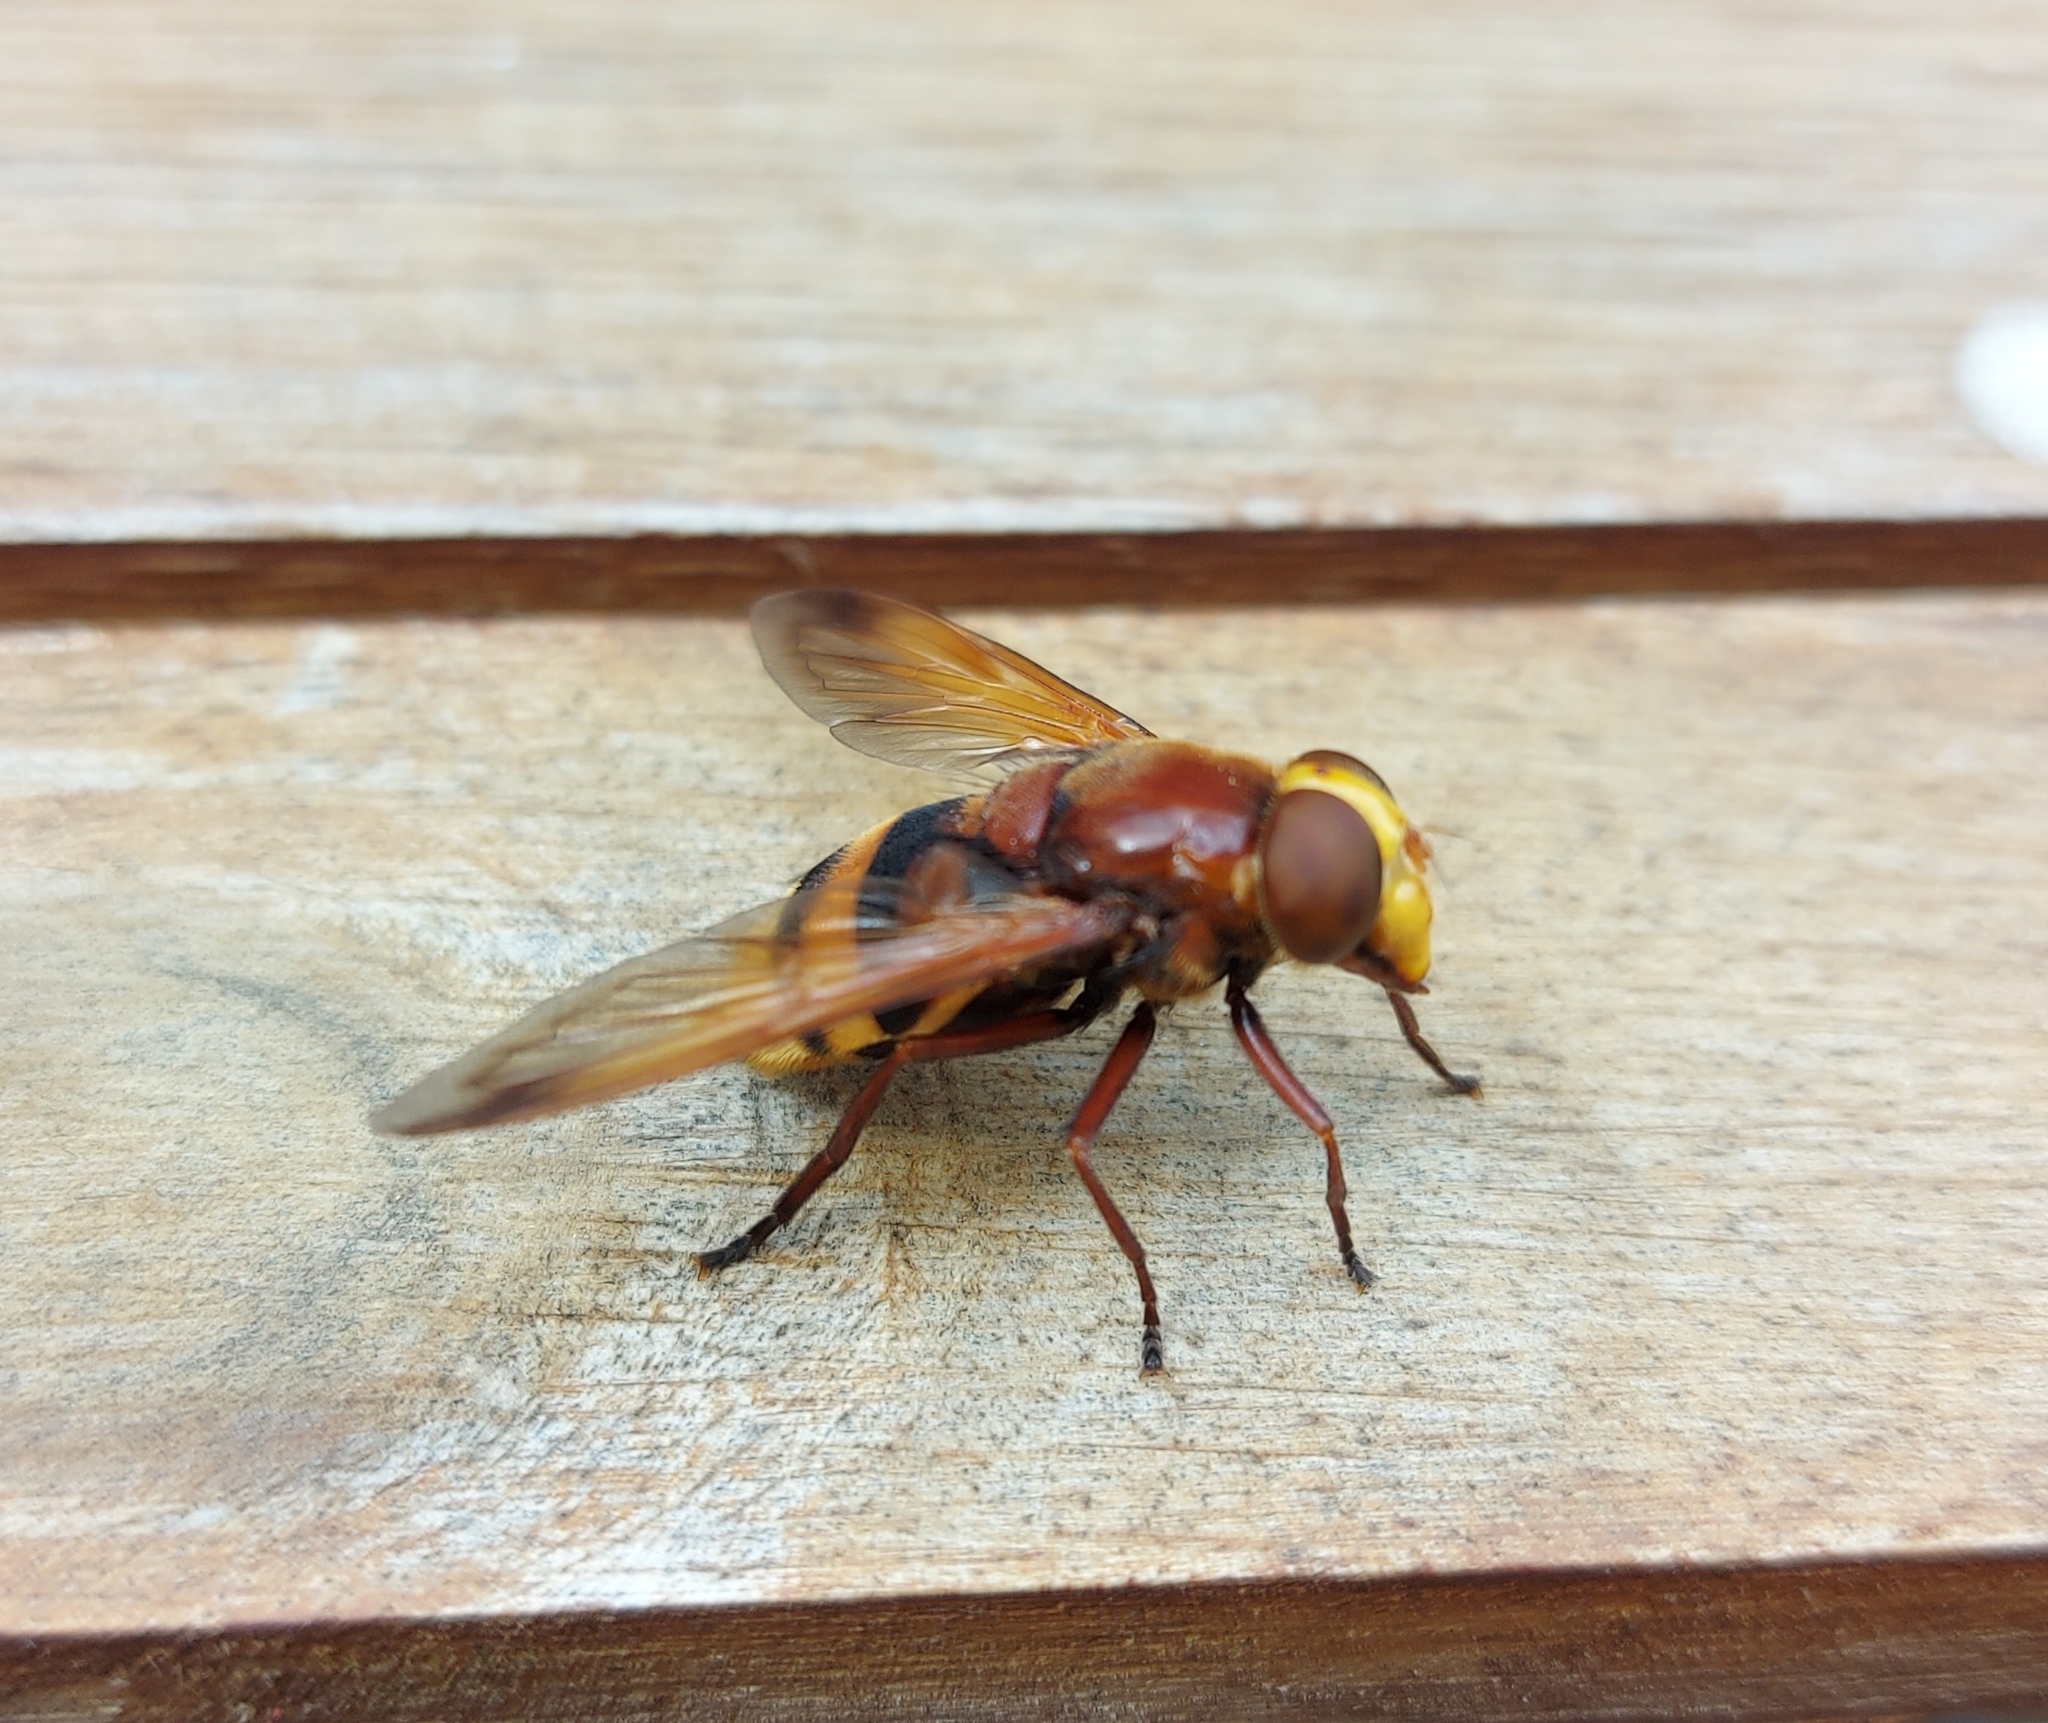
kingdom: Animalia
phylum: Arthropoda
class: Insecta
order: Diptera
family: Syrphidae
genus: Volucella
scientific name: Volucella zonaria
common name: Hornet hoverfly
